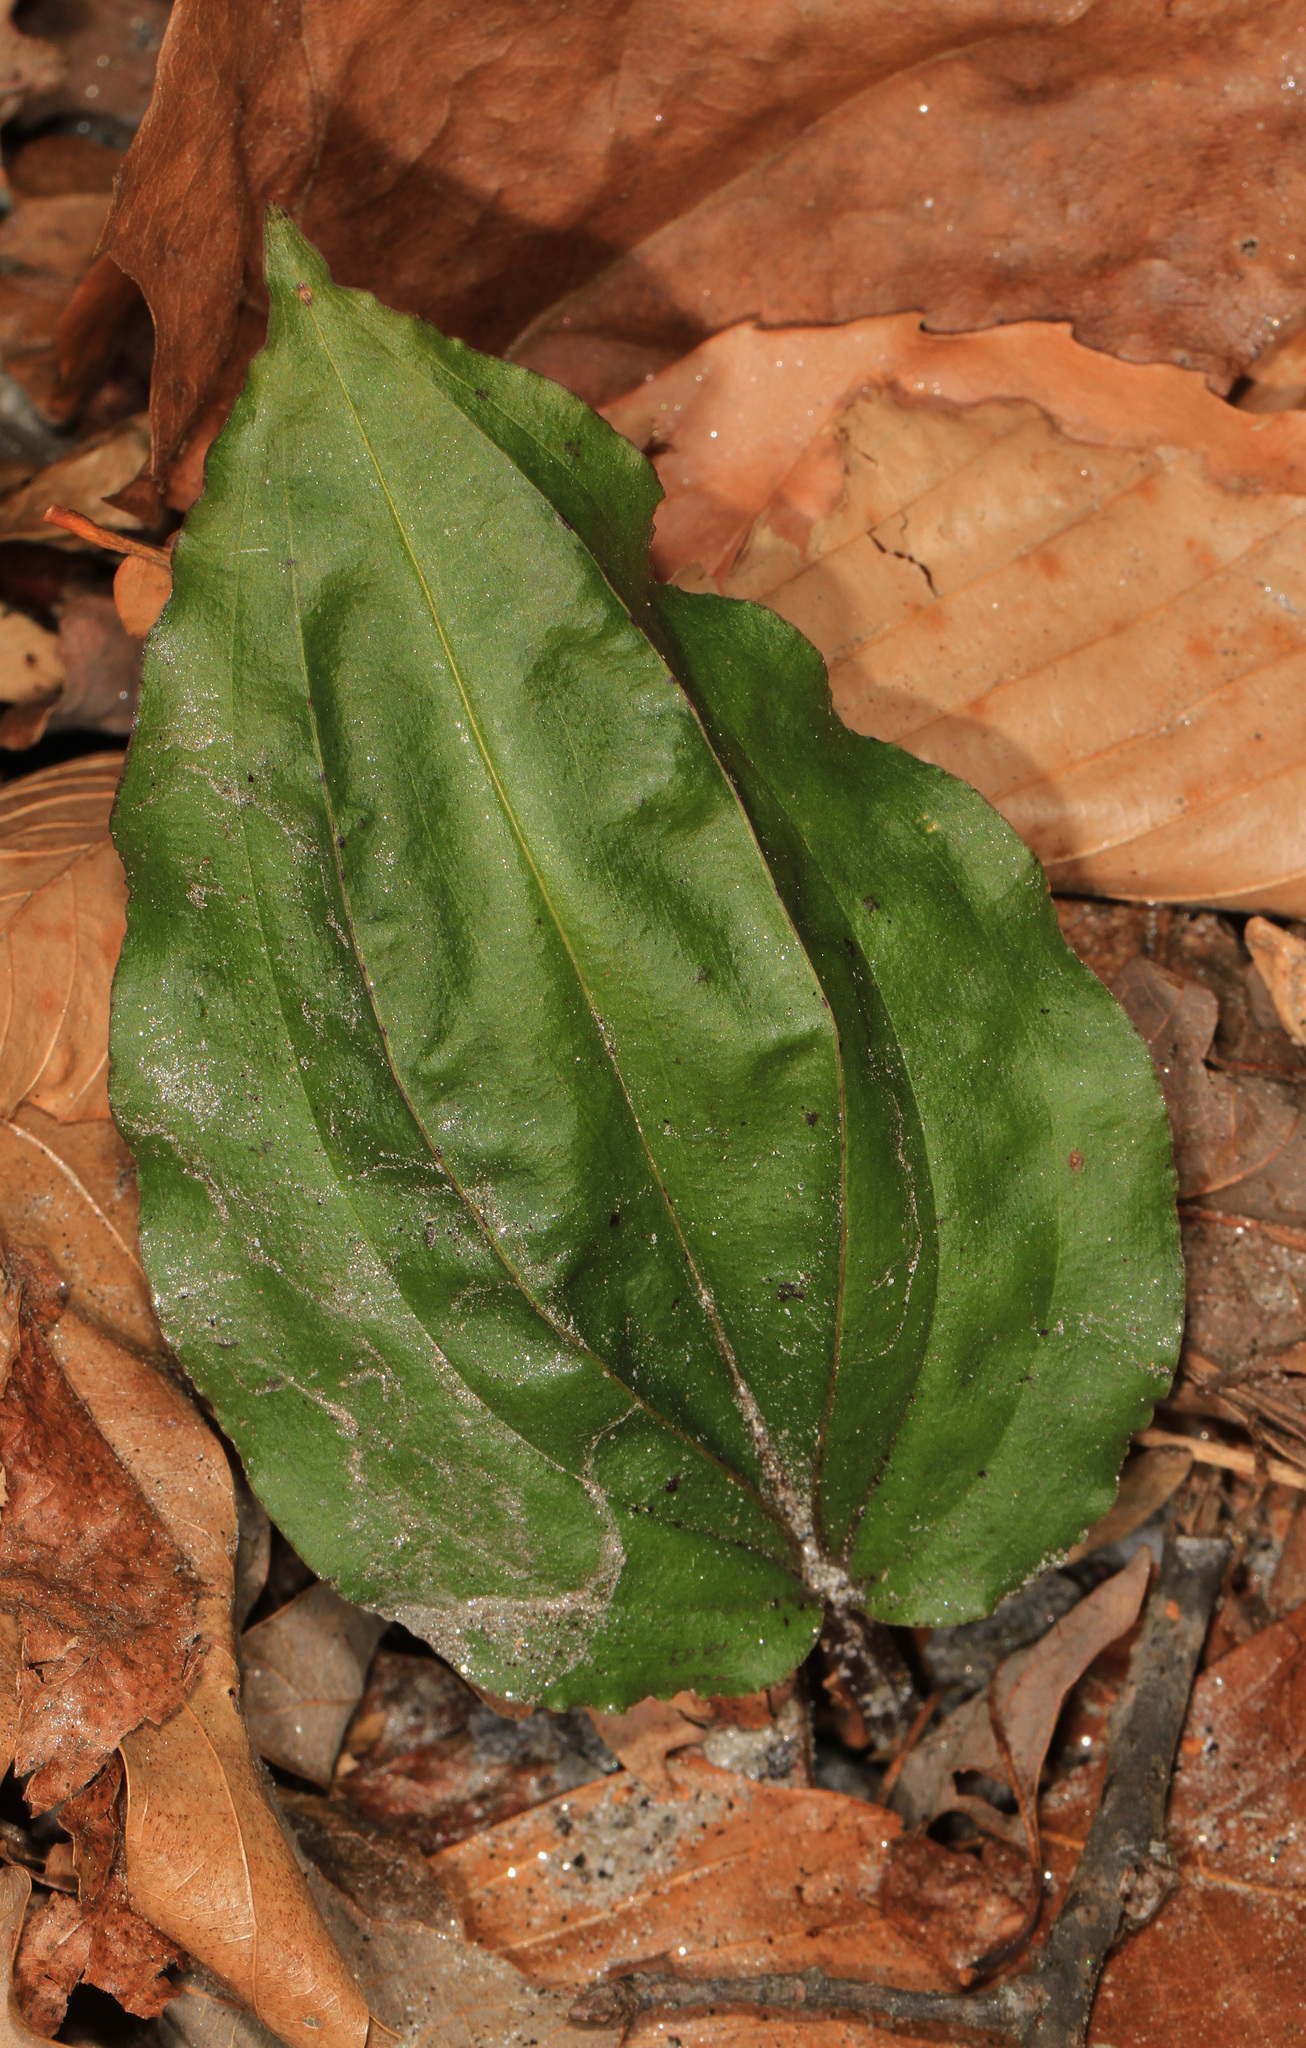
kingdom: Plantae
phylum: Tracheophyta
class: Liliopsida
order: Asparagales
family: Orchidaceae
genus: Tipularia
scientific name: Tipularia discolor
